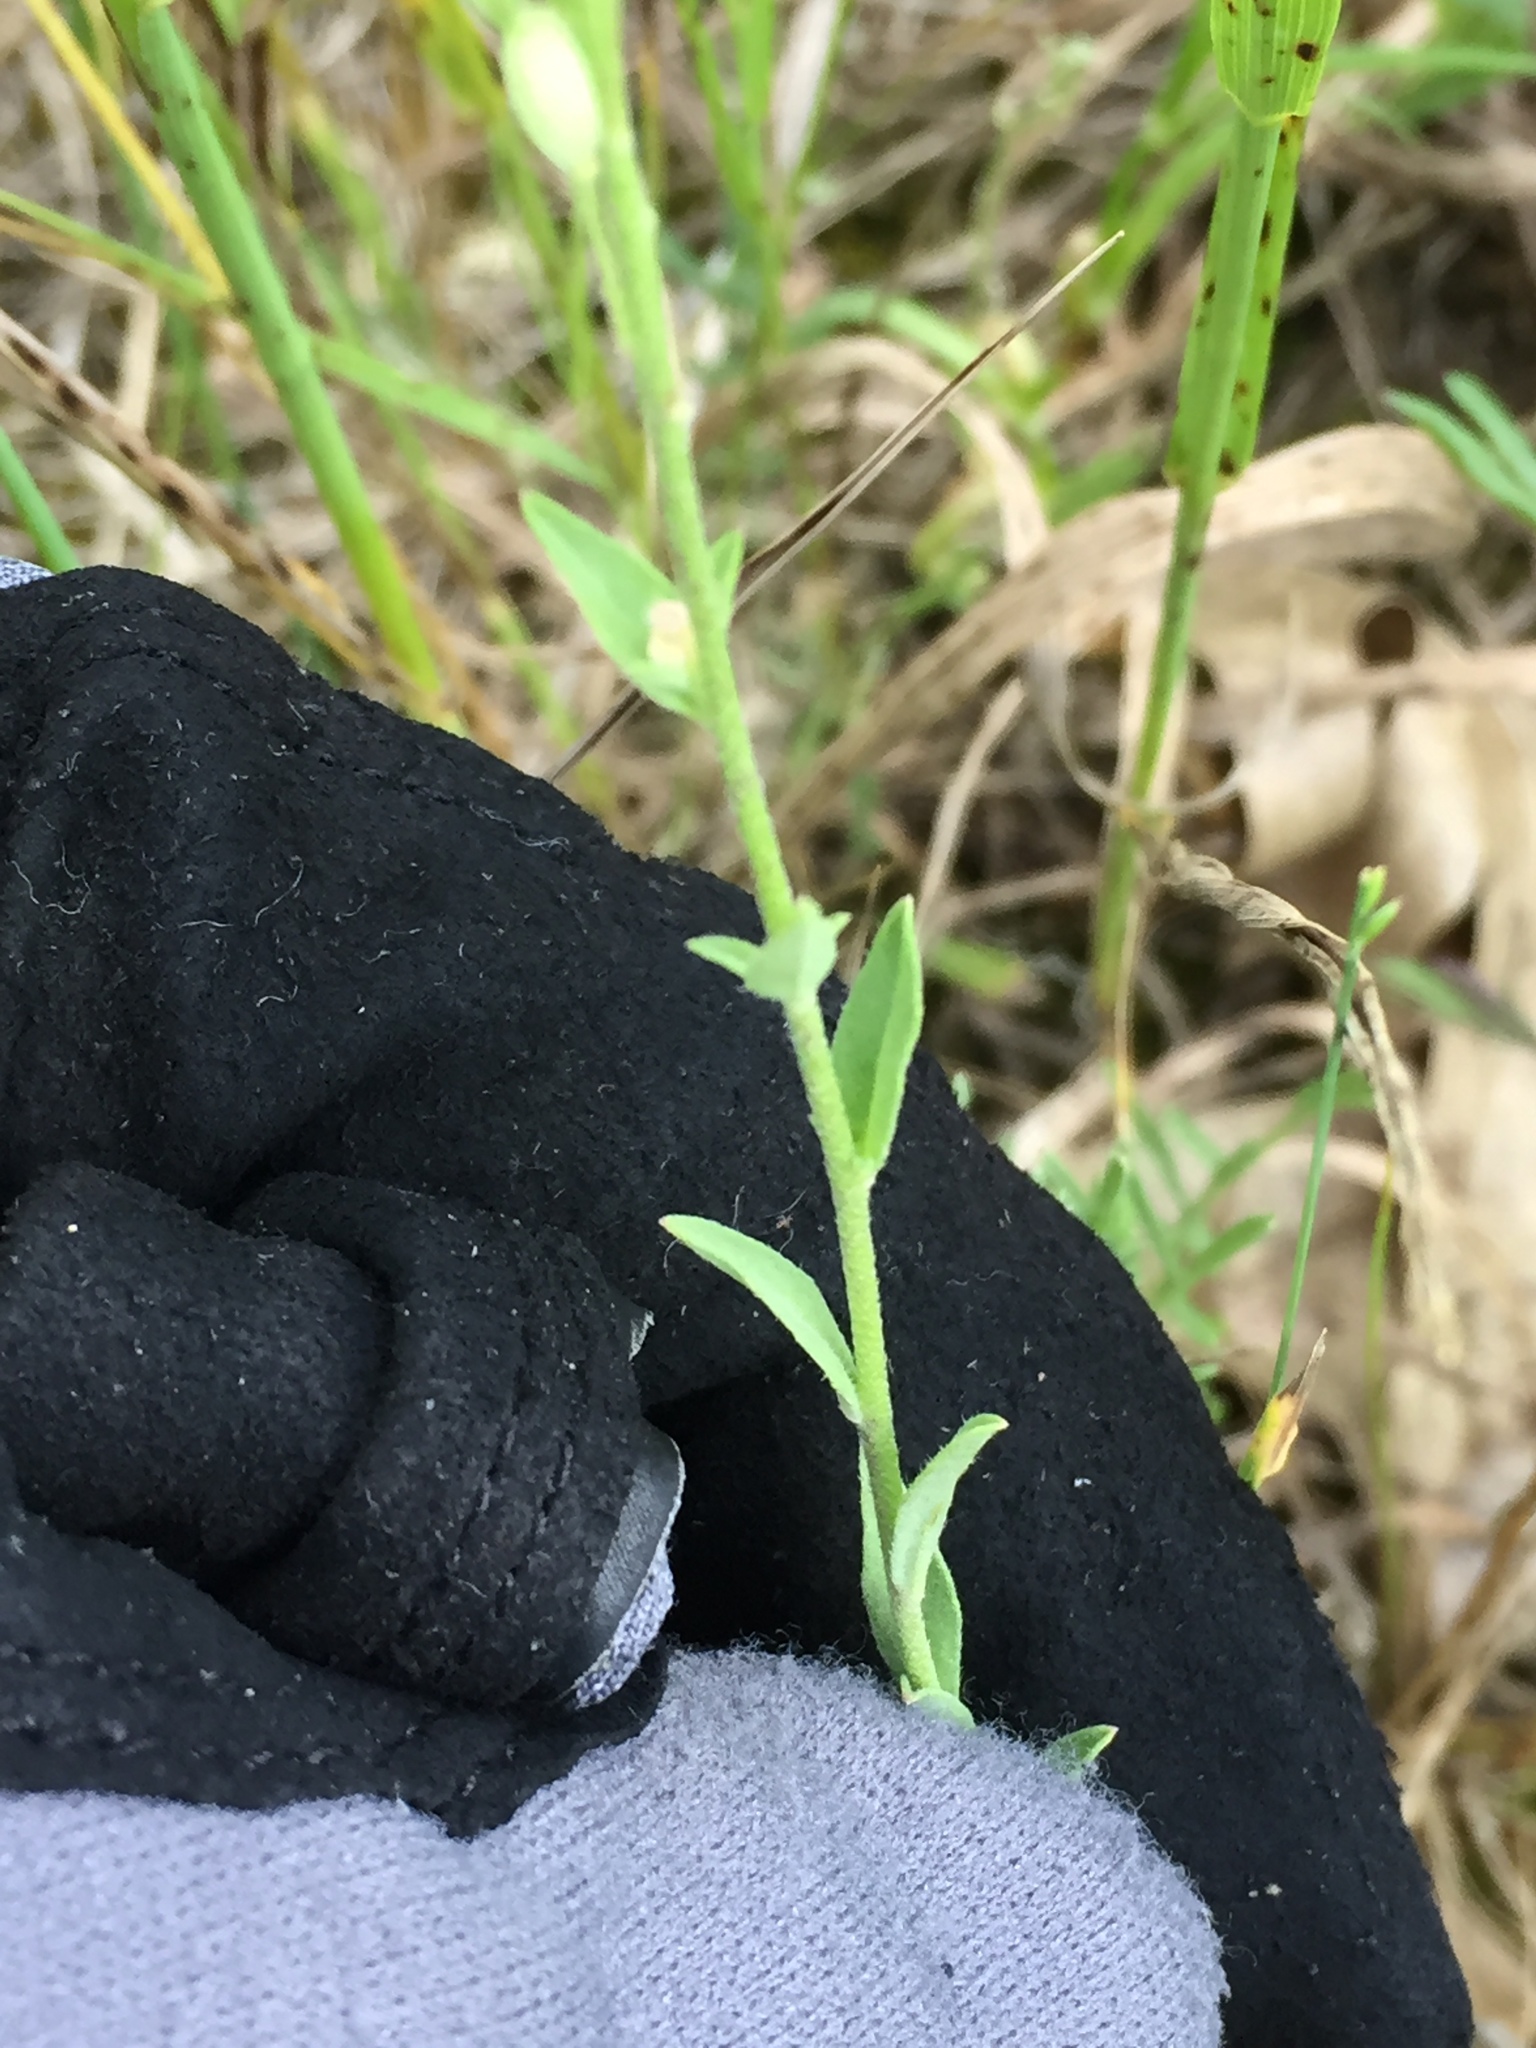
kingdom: Plantae
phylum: Tracheophyta
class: Magnoliopsida
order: Brassicales
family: Brassicaceae
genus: Berteroa
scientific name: Berteroa incana
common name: Hoary alison
